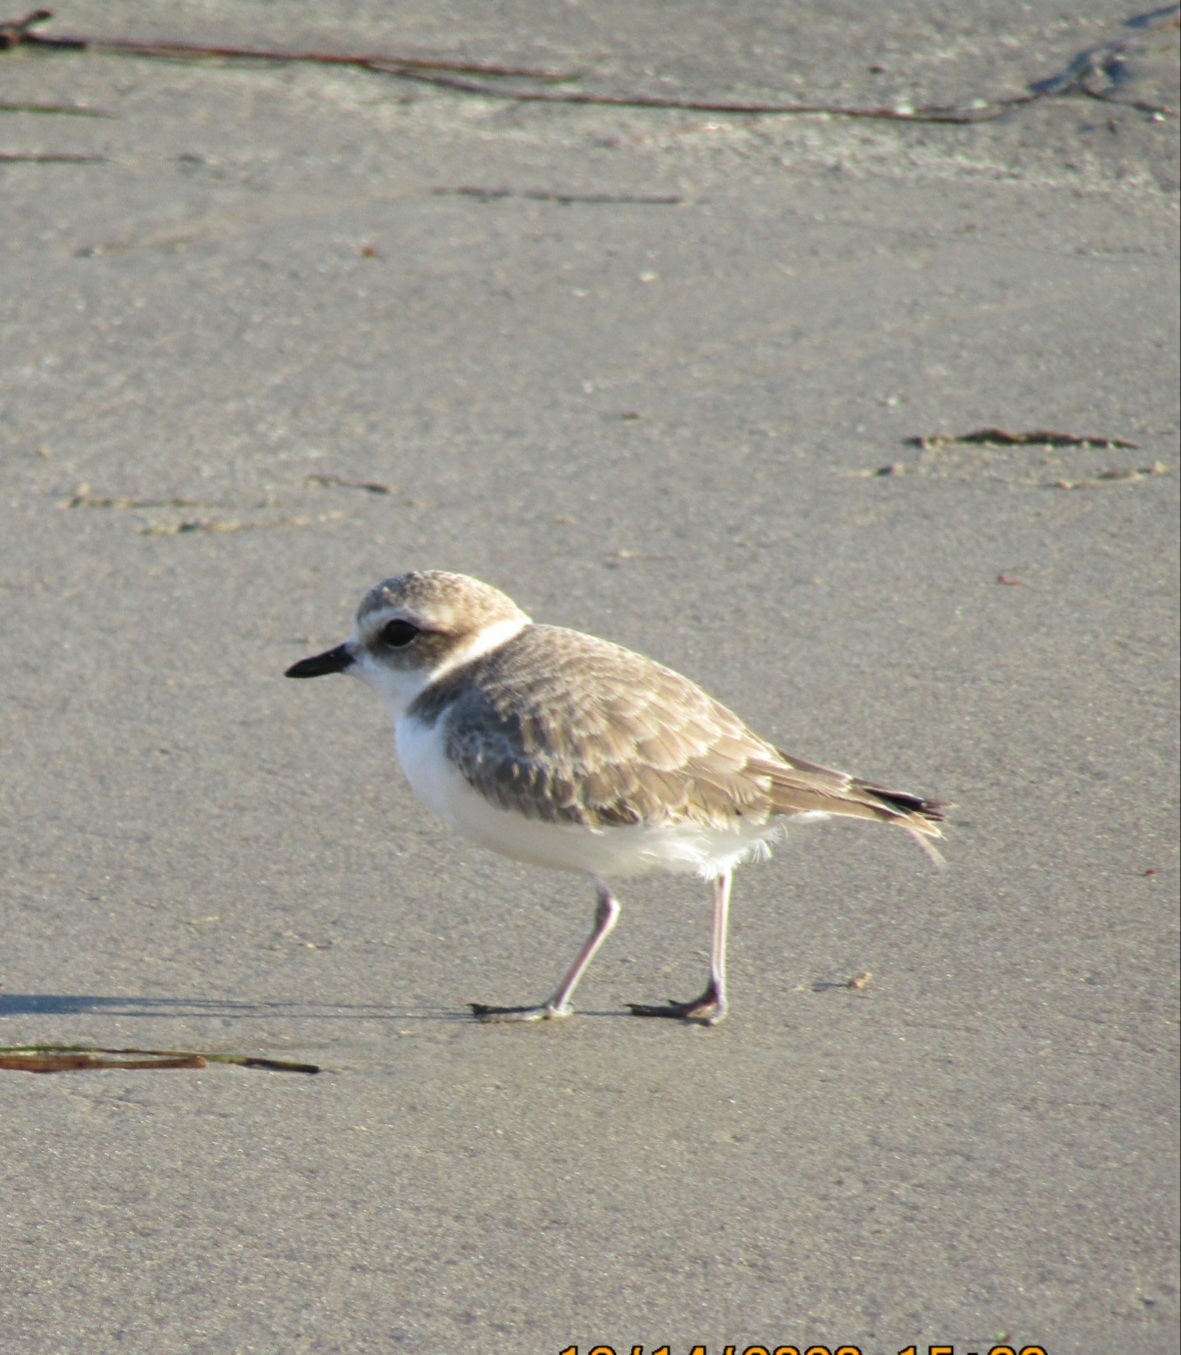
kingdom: Animalia
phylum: Chordata
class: Aves
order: Charadriiformes
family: Charadriidae
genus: Anarhynchus
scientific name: Anarhynchus
